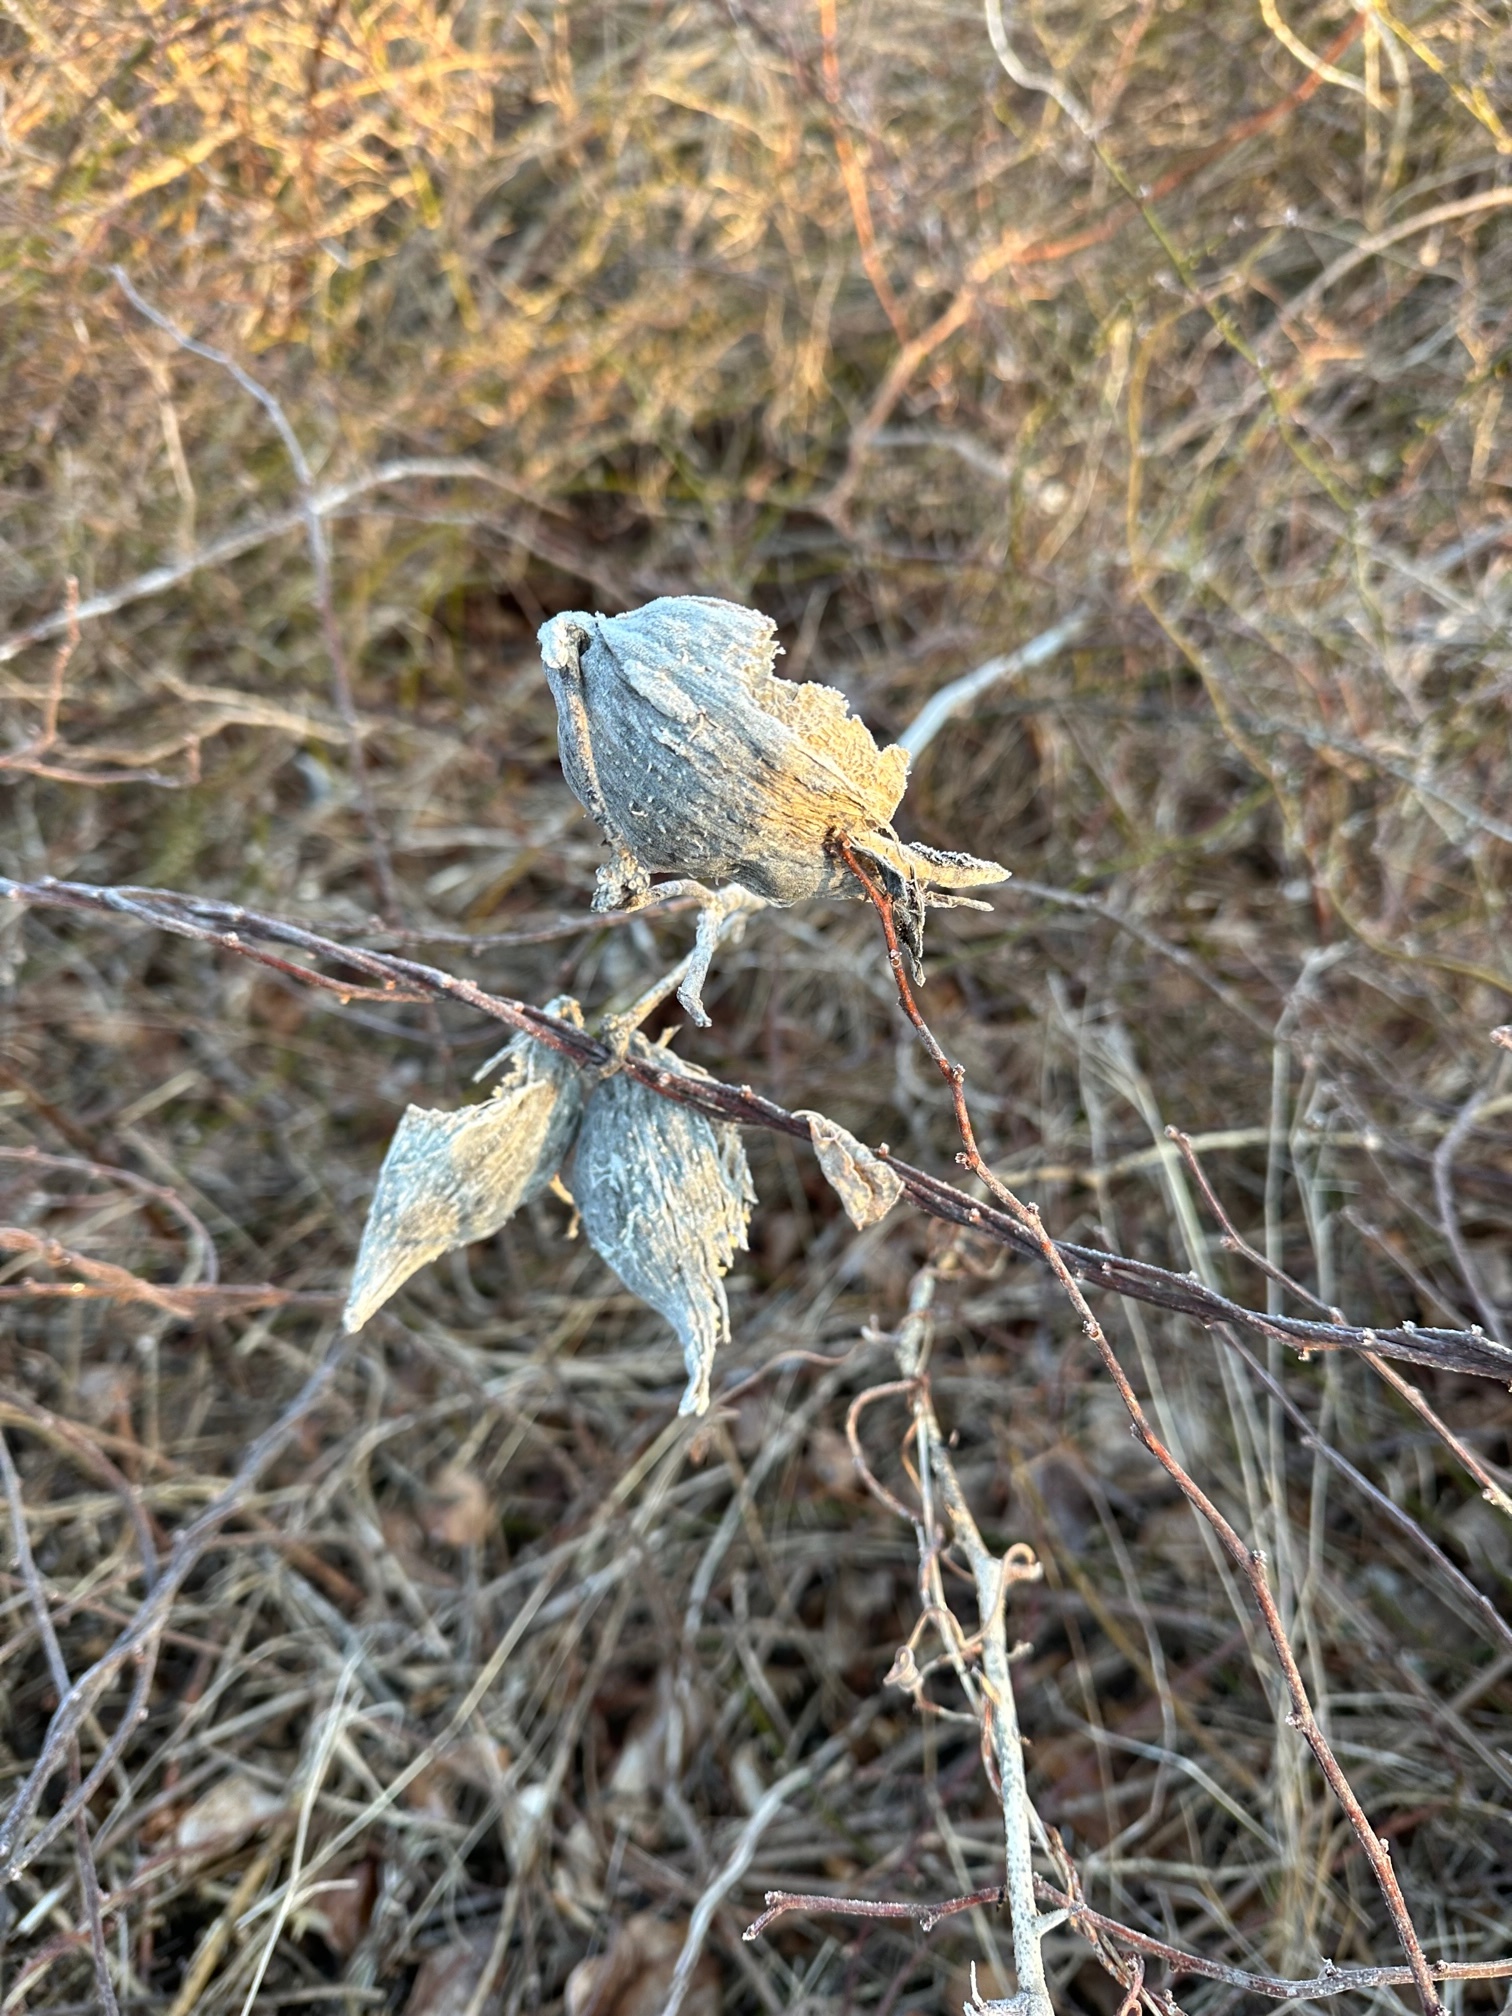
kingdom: Plantae
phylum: Tracheophyta
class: Magnoliopsida
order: Gentianales
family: Apocynaceae
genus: Asclepias
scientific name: Asclepias syriaca
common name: Common milkweed
